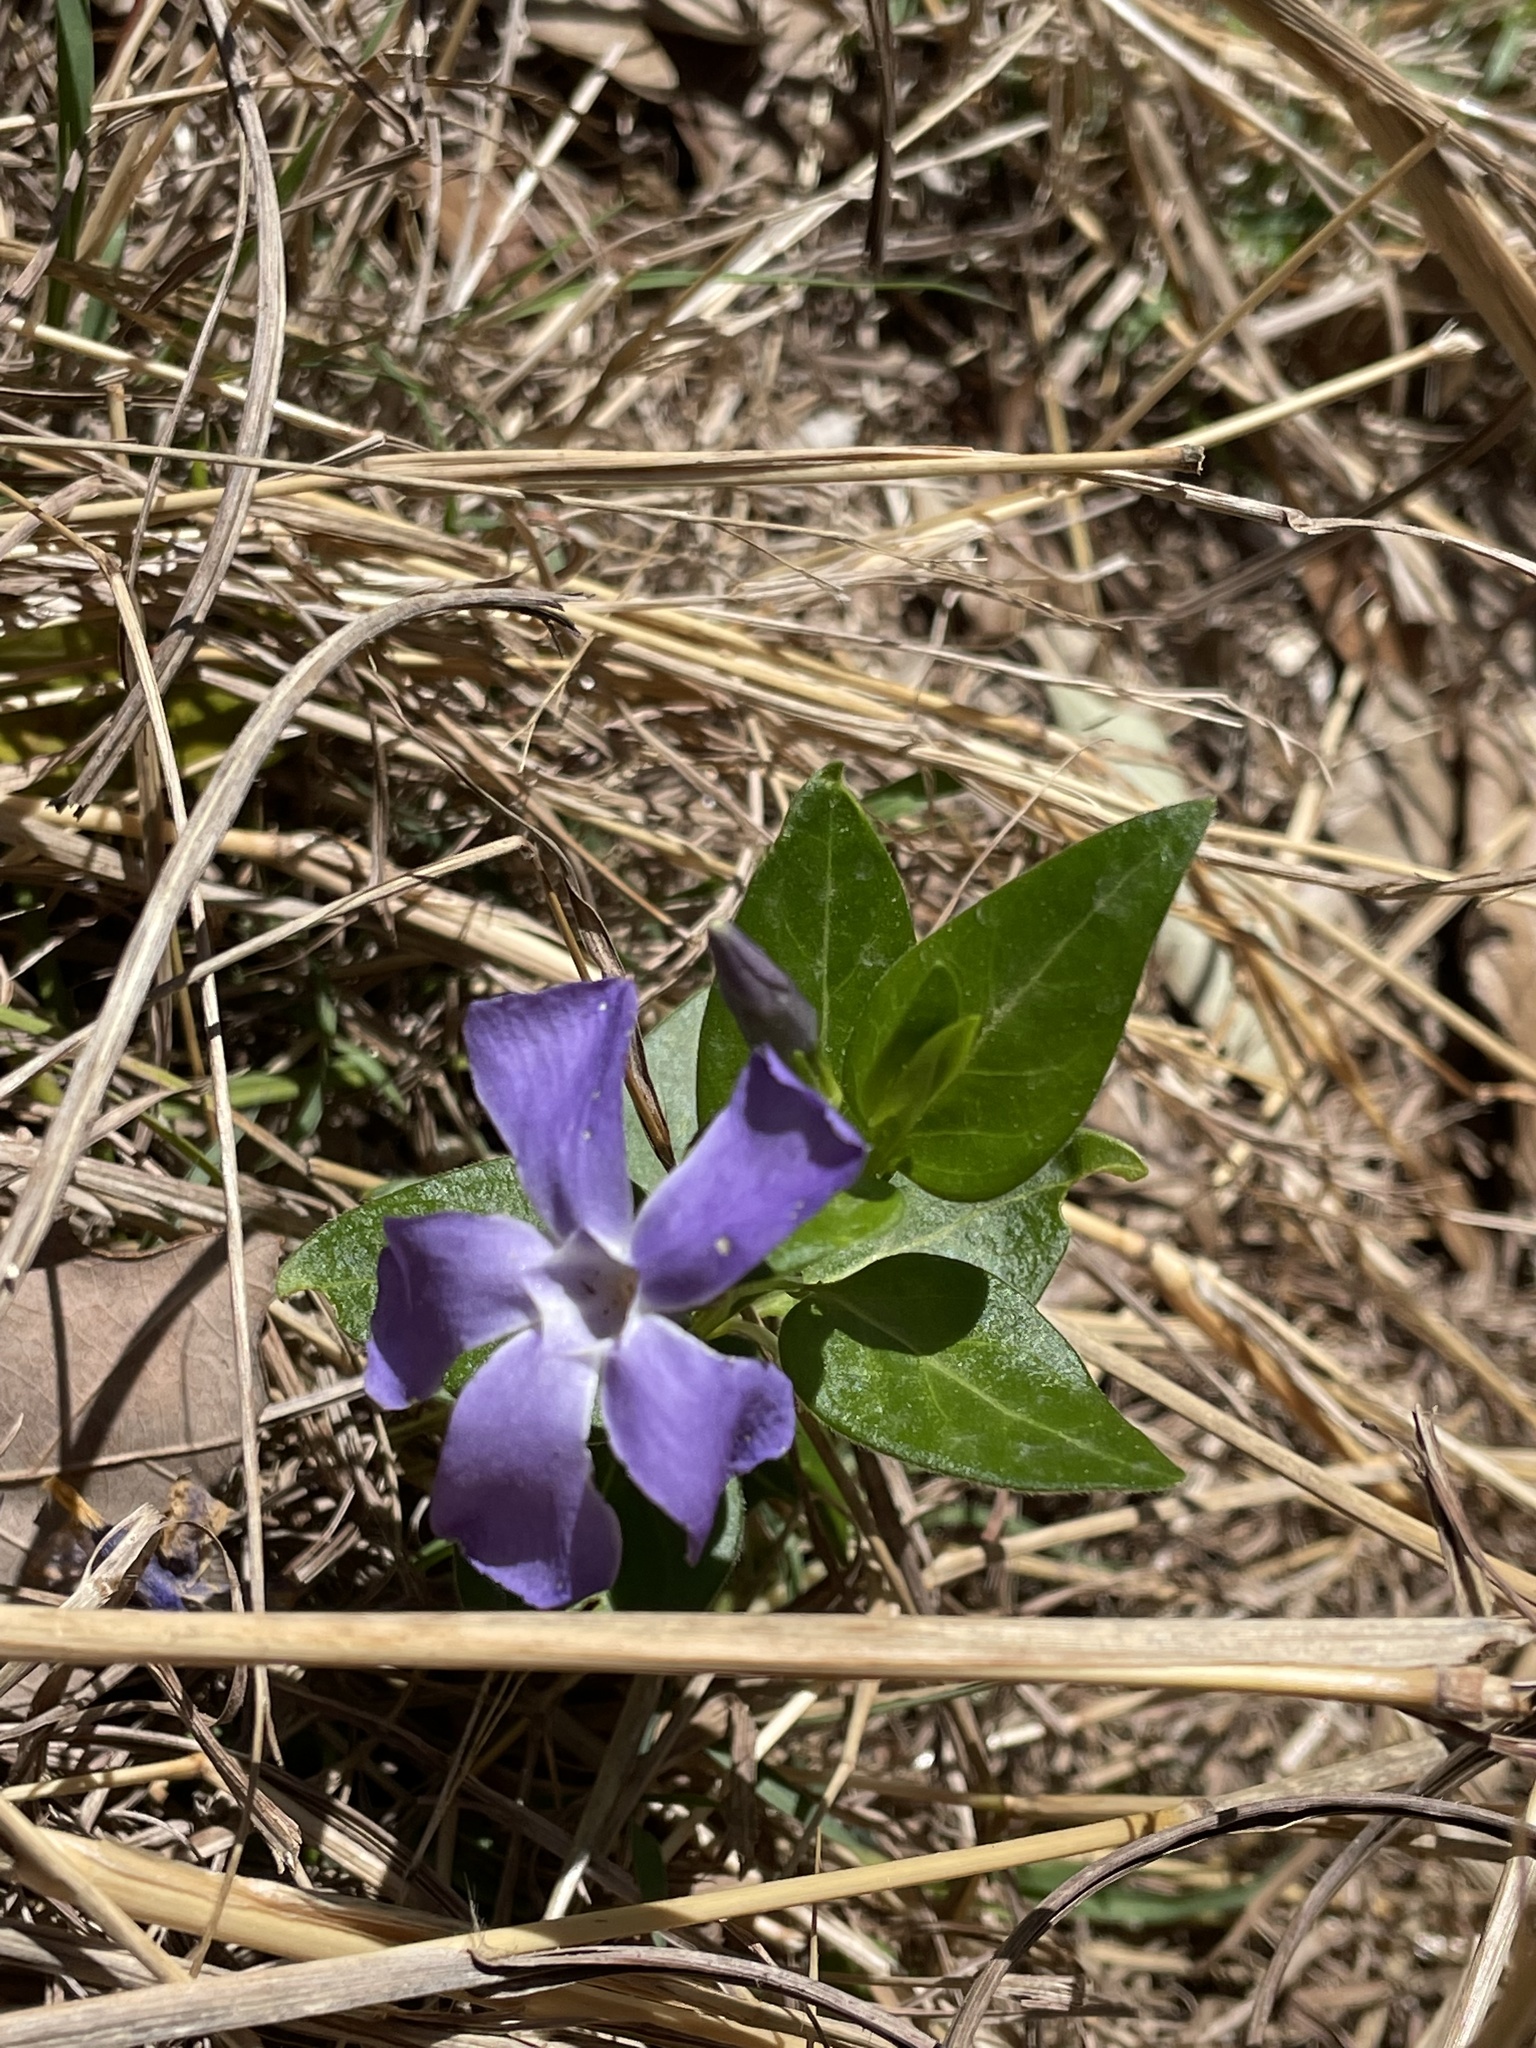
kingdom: Plantae
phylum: Tracheophyta
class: Magnoliopsida
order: Gentianales
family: Apocynaceae
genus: Vinca
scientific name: Vinca major
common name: Greater periwinkle
